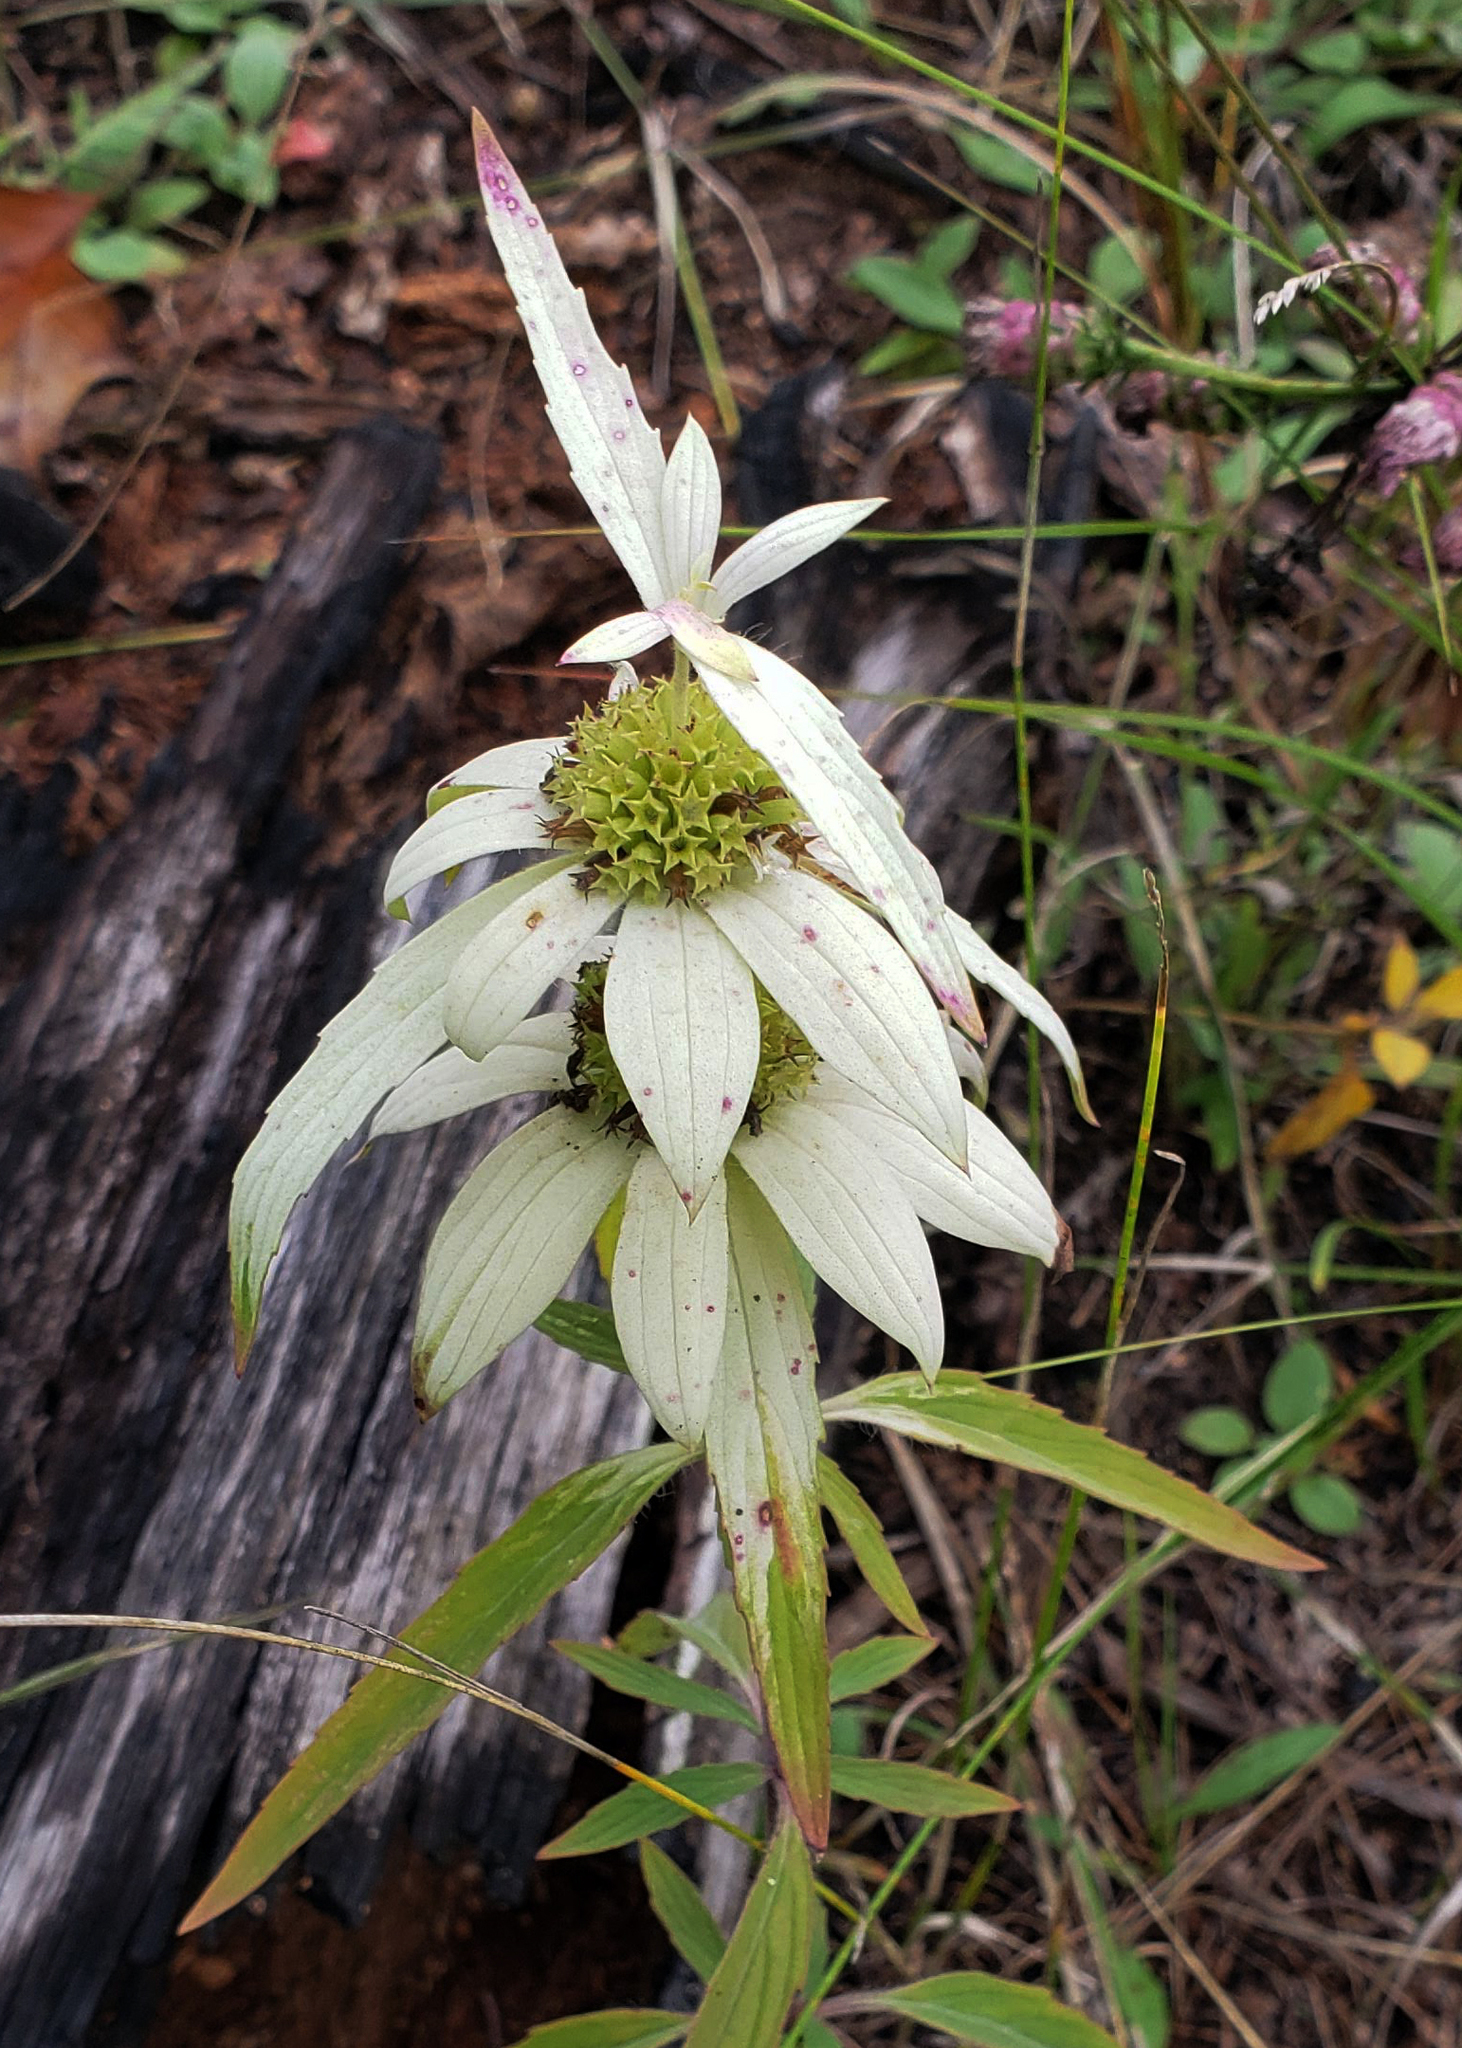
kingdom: Plantae
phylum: Tracheophyta
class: Magnoliopsida
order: Lamiales
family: Lamiaceae
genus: Monarda
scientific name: Monarda punctata
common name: Dotted monarda
